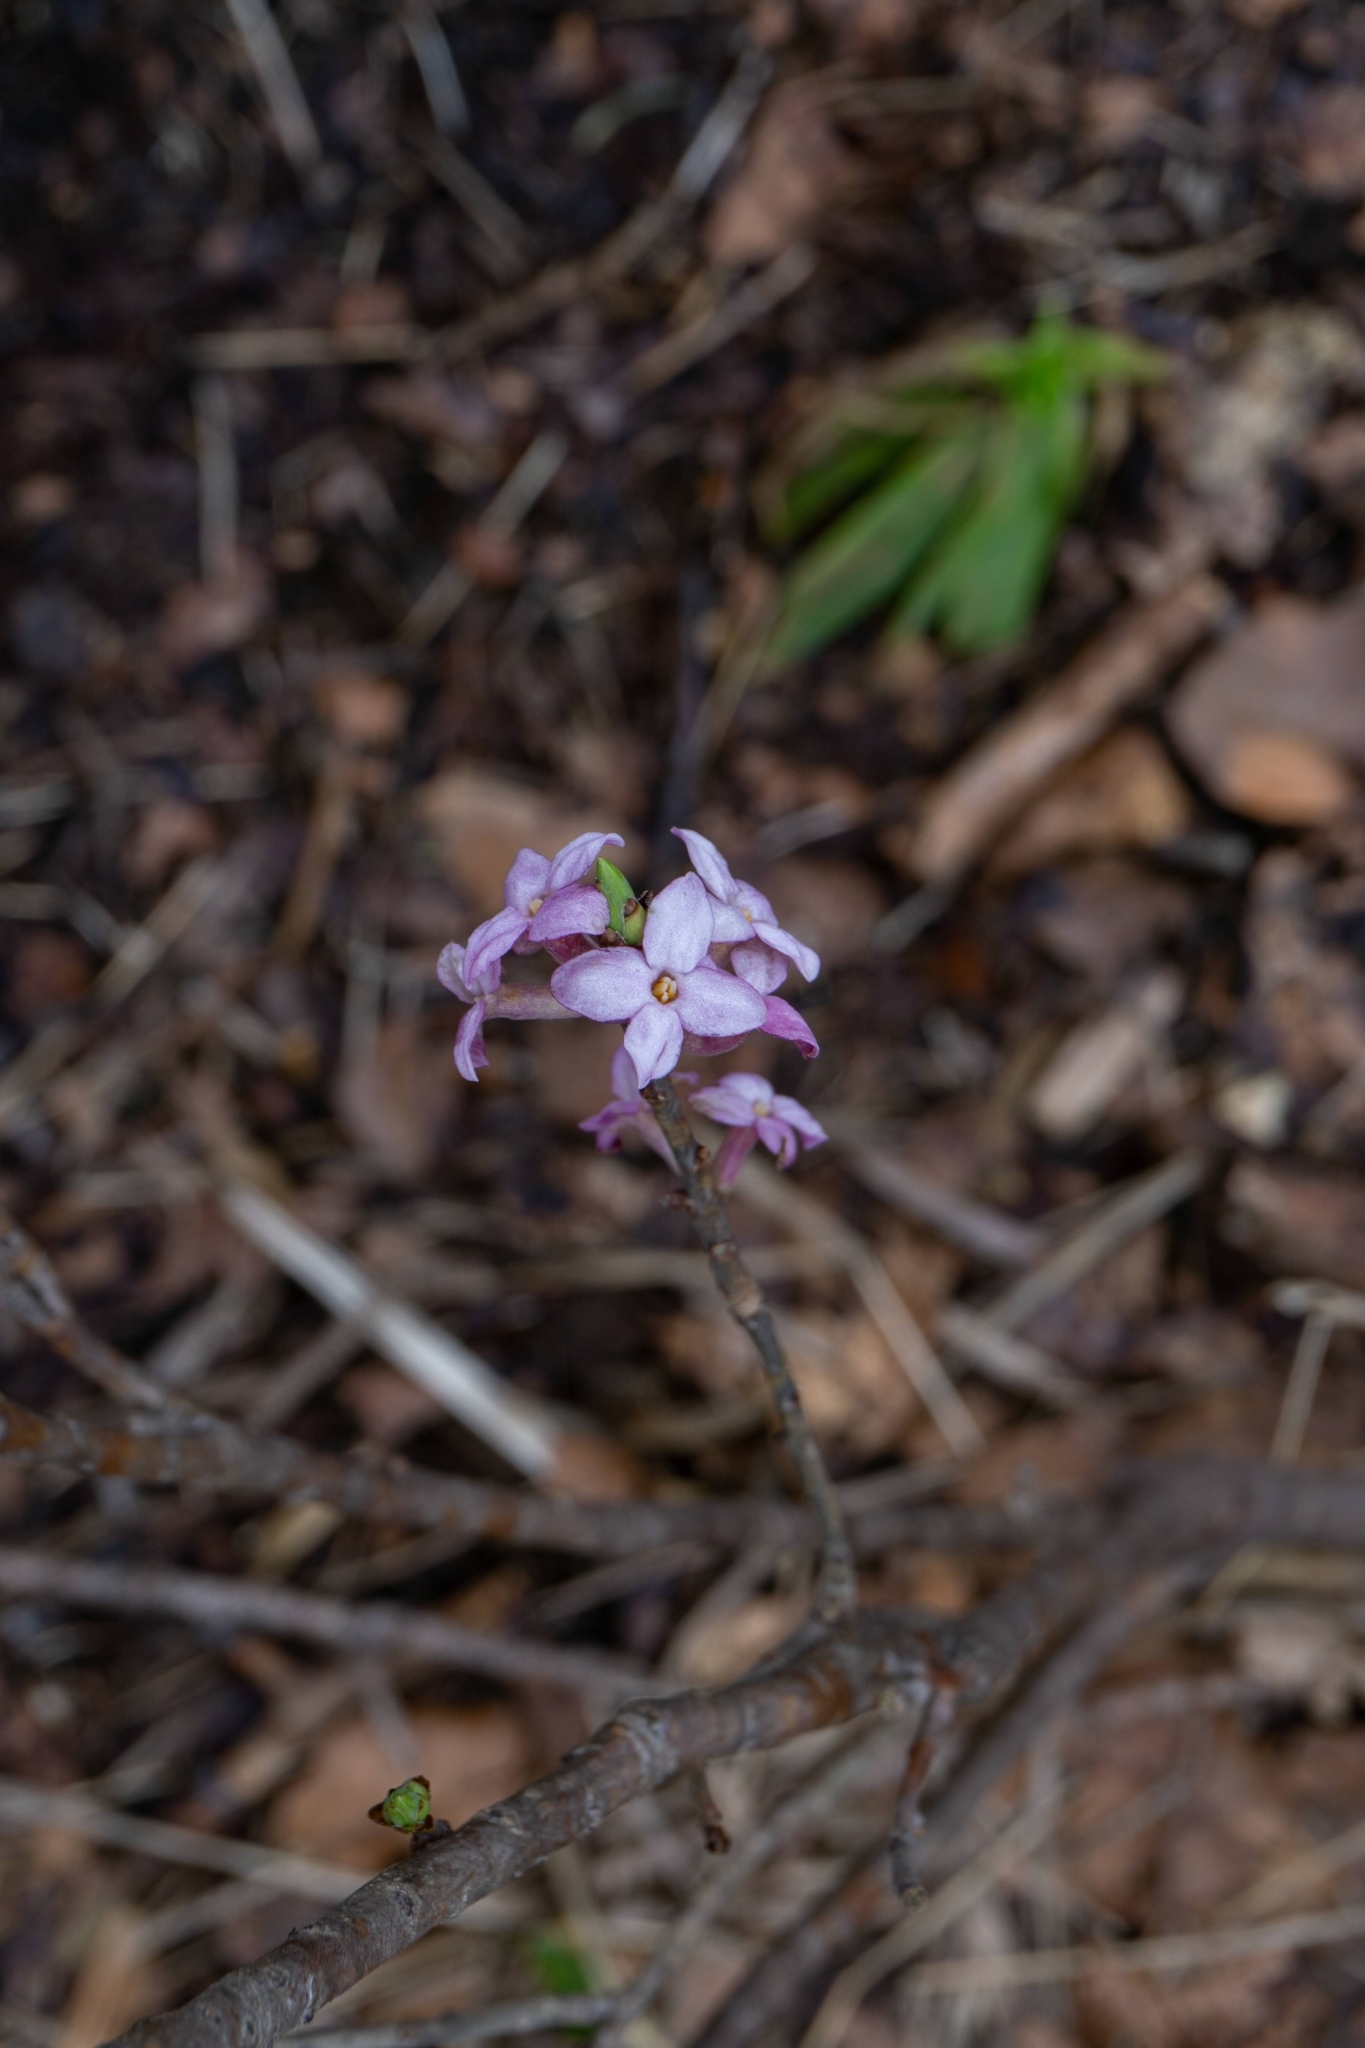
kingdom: Plantae
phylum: Tracheophyta
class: Magnoliopsida
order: Malvales
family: Thymelaeaceae
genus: Daphne
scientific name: Daphne mezereum
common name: Mezereon
